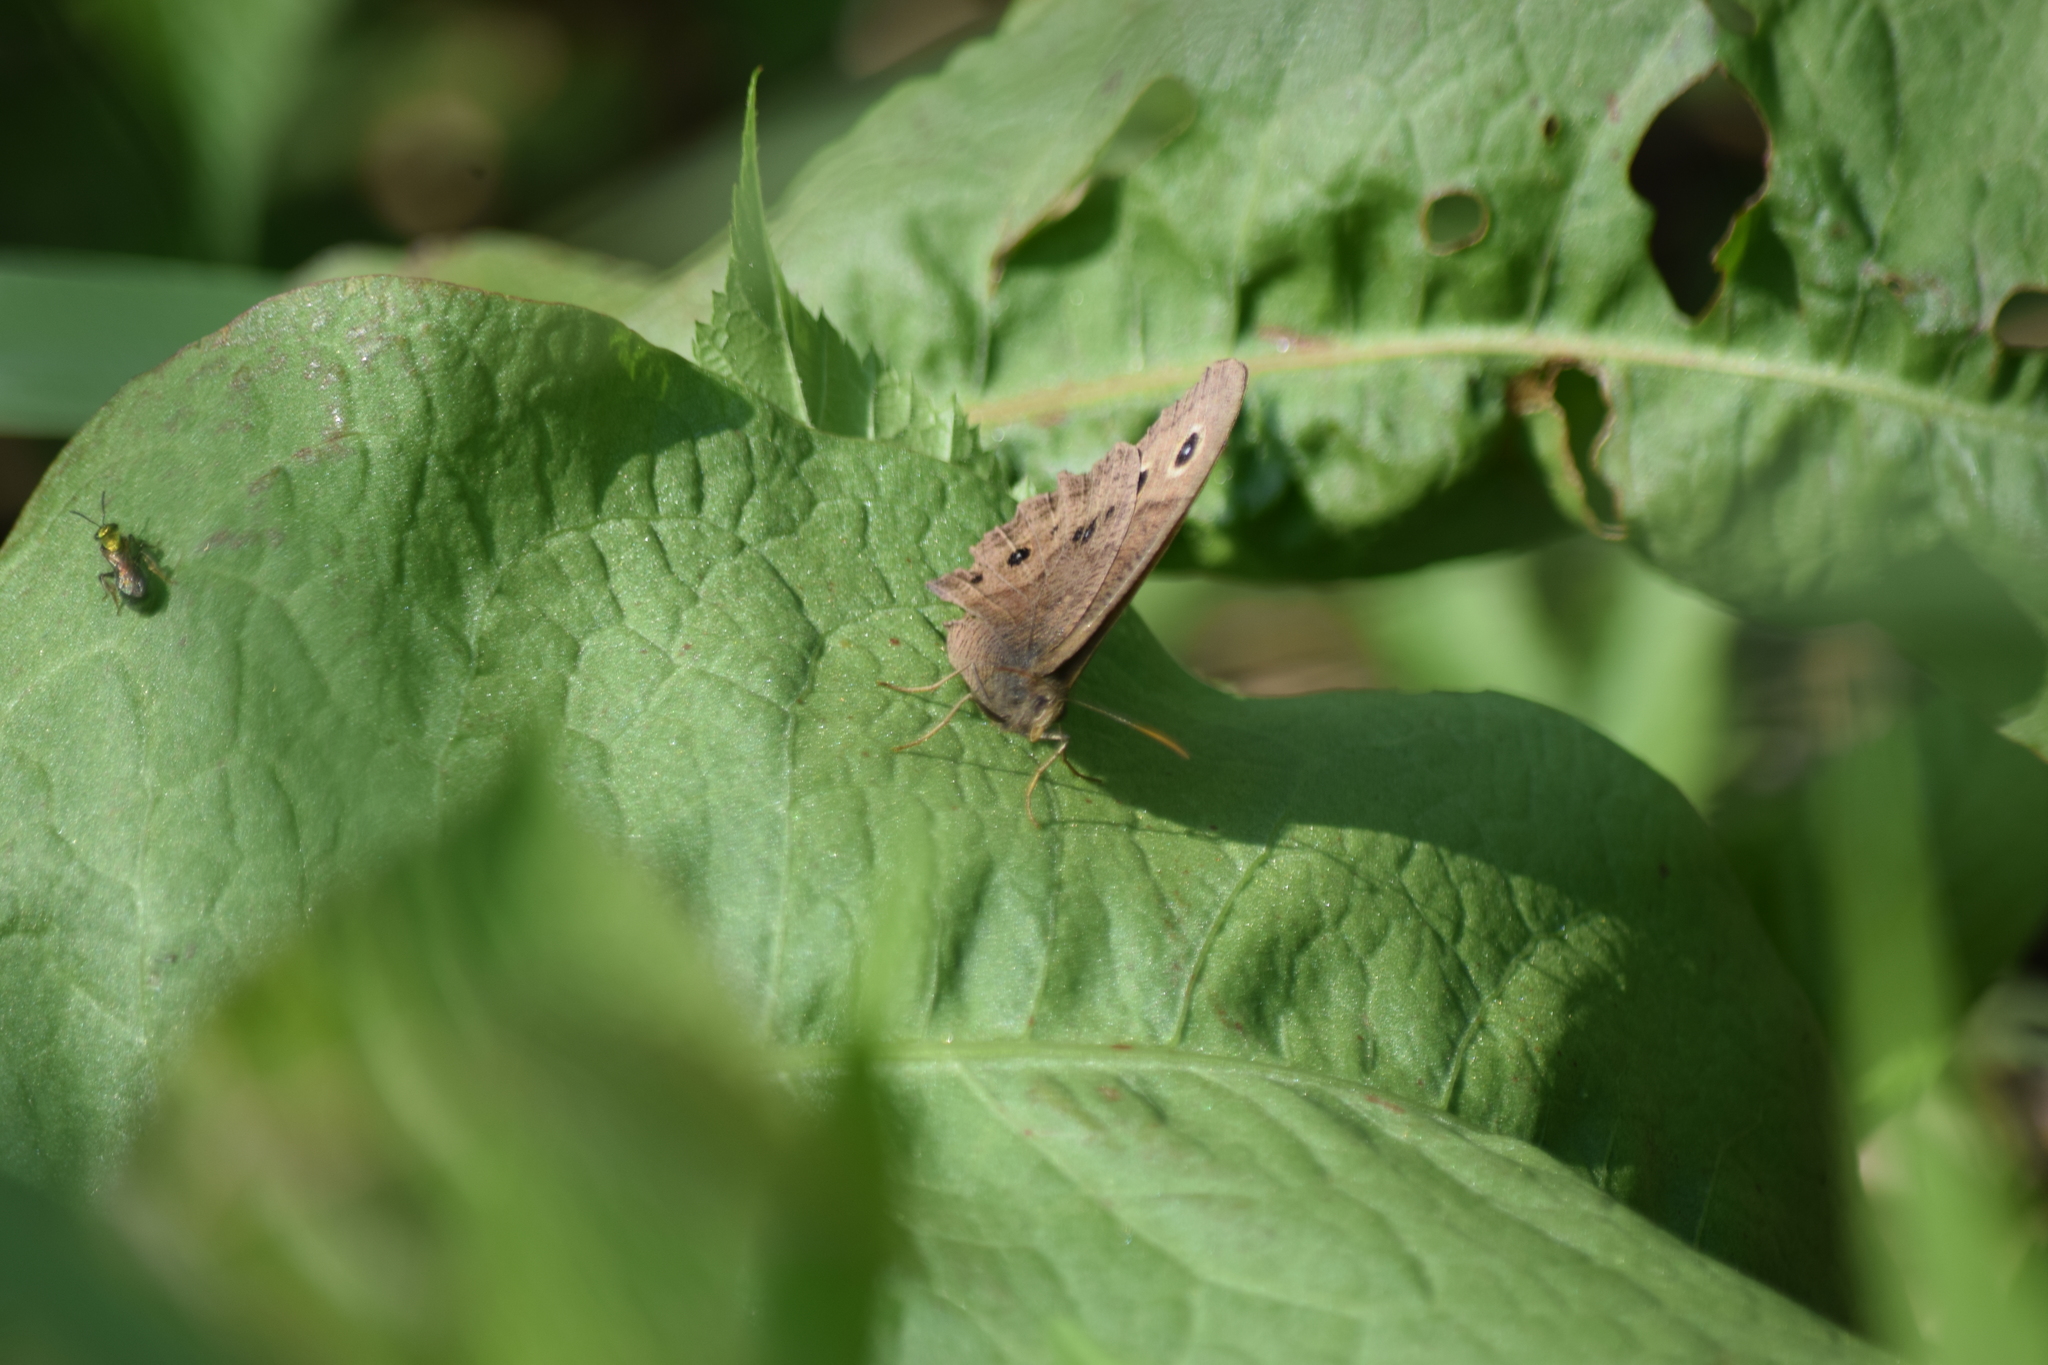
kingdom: Animalia
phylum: Arthropoda
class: Insecta
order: Lepidoptera
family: Nymphalidae
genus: Cercyonis
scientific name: Cercyonis pegala
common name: Common wood-nymph
